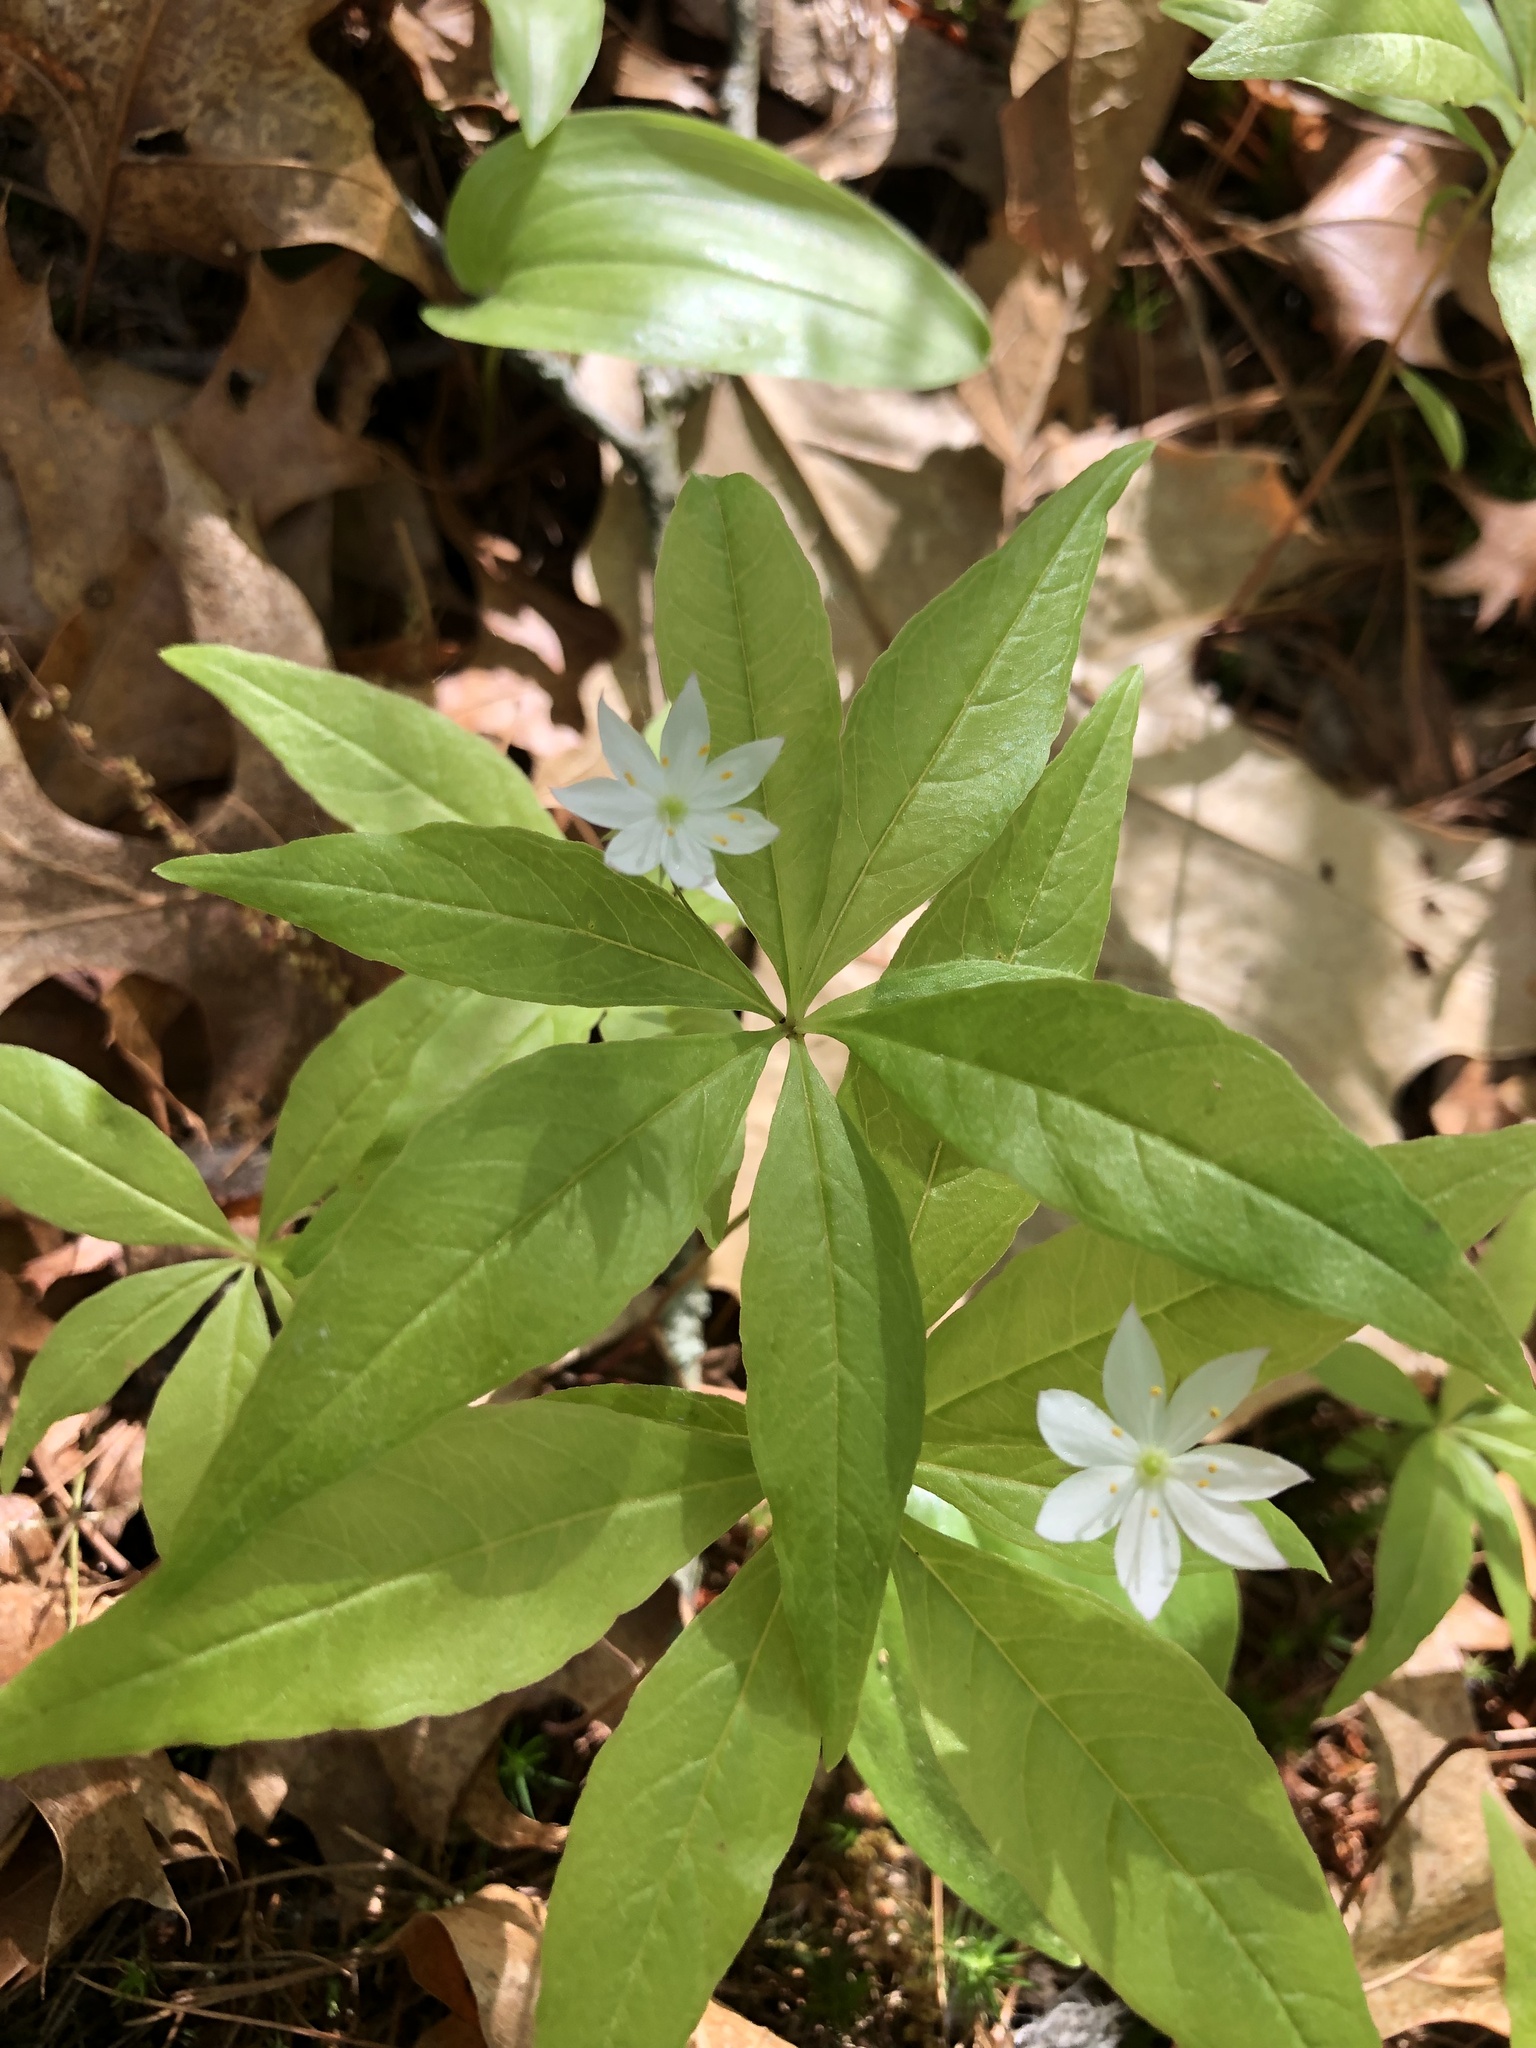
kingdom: Plantae
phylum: Tracheophyta
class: Magnoliopsida
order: Ericales
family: Primulaceae
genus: Lysimachia
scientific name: Lysimachia borealis
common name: American starflower
